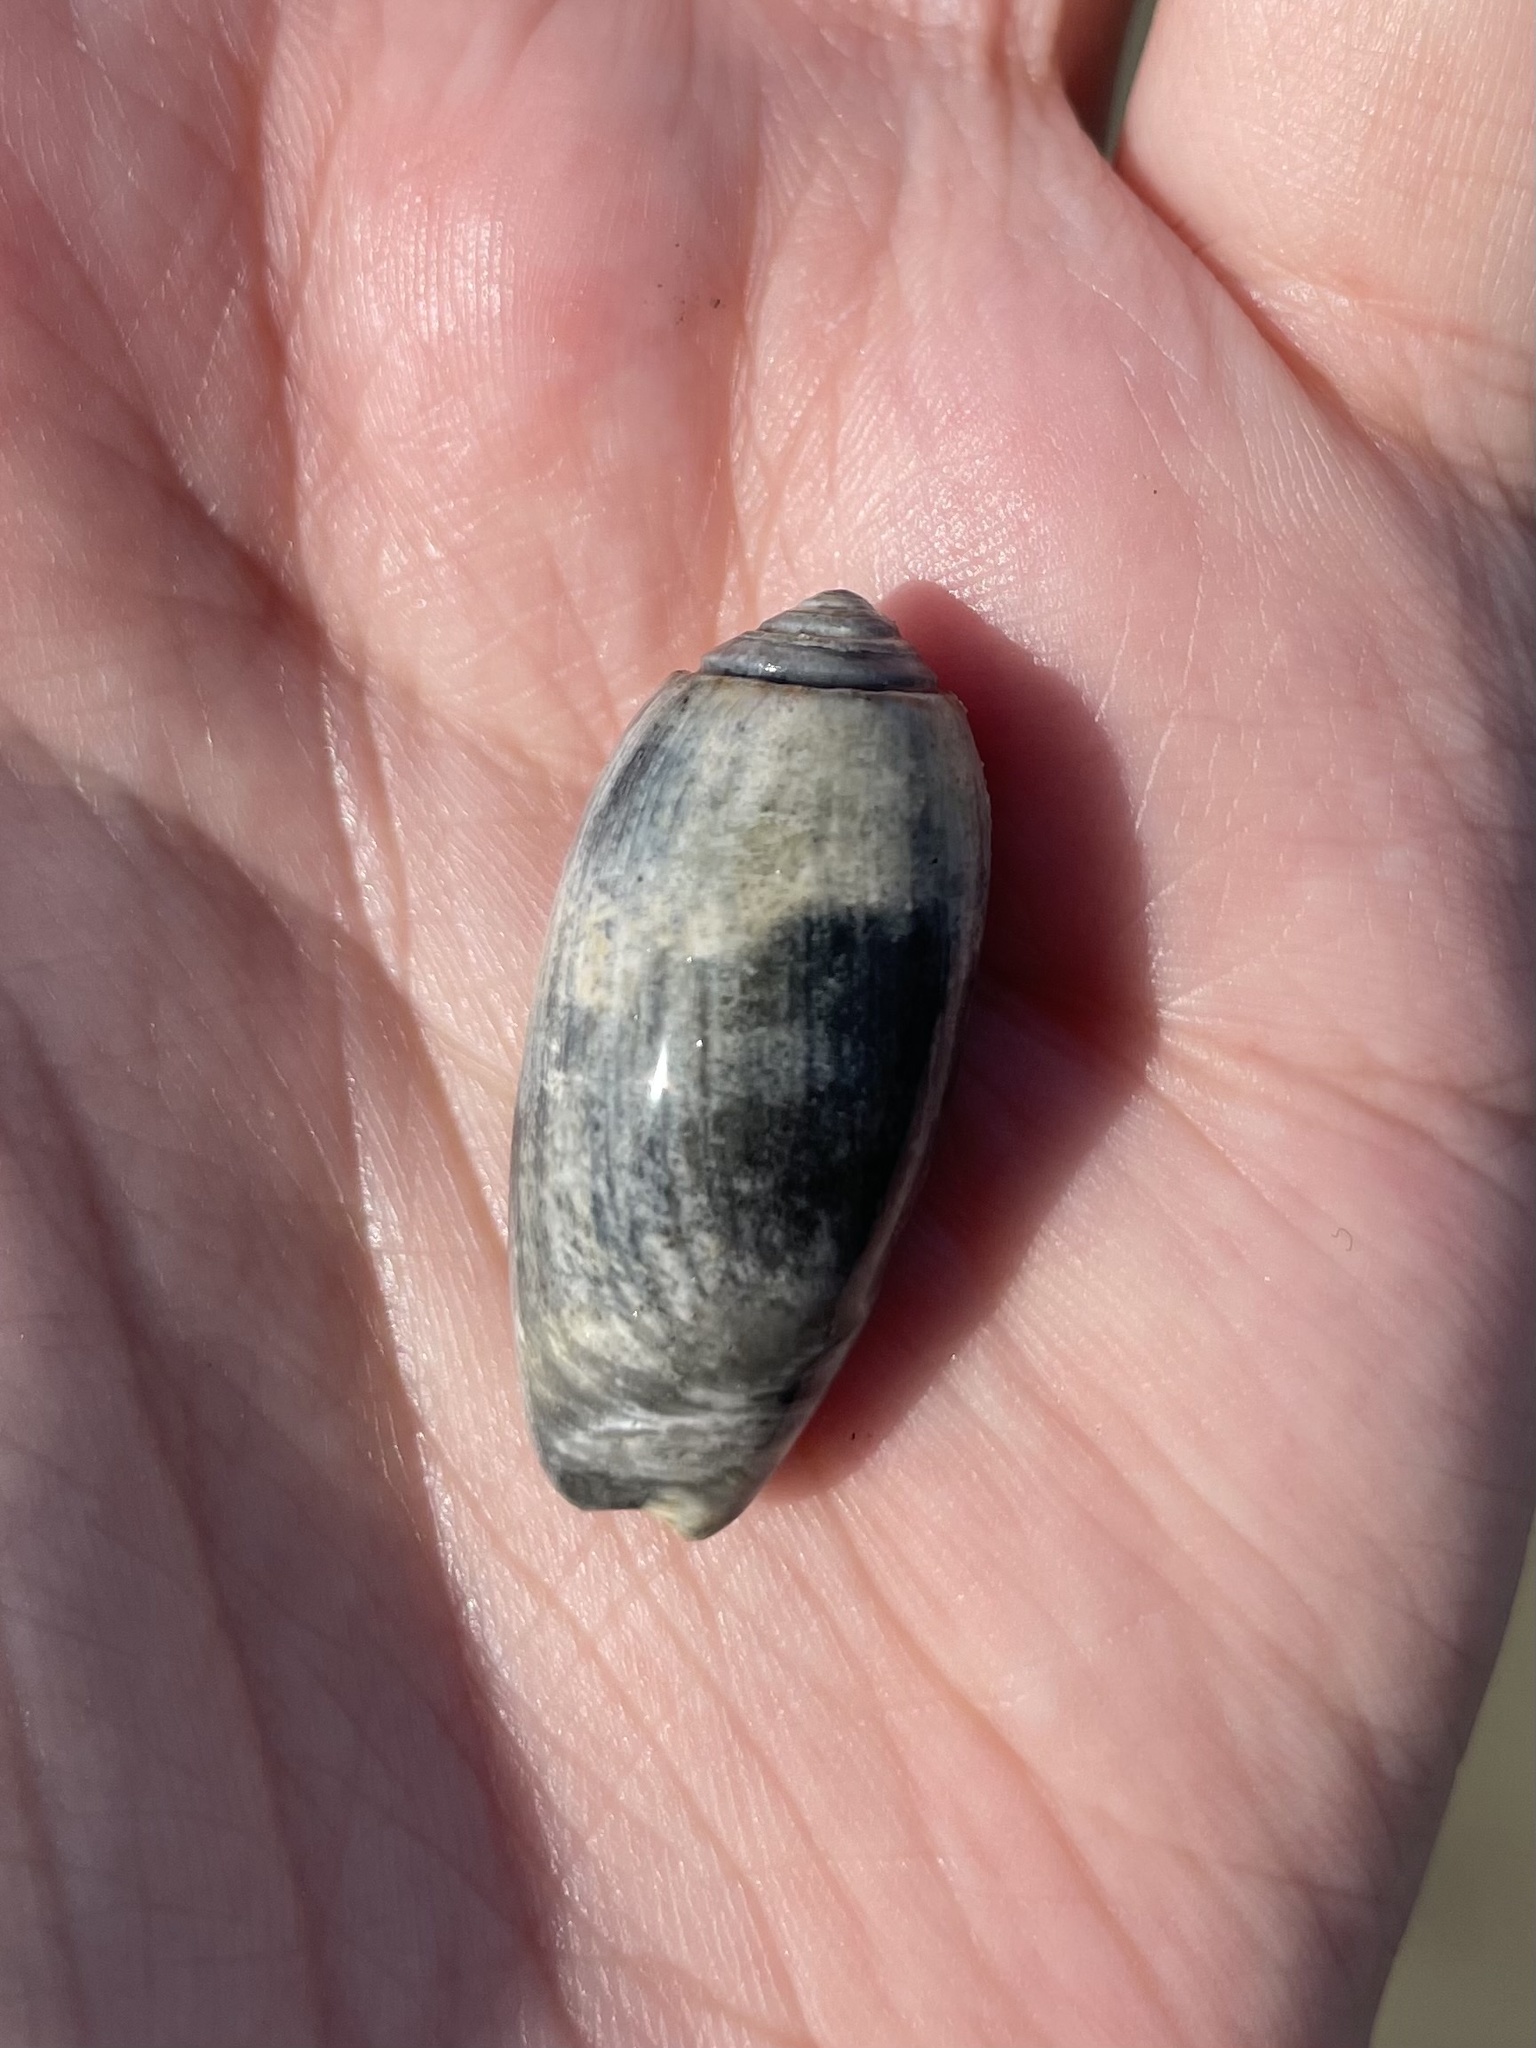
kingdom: Animalia
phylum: Mollusca
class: Gastropoda
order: Neogastropoda
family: Olividae
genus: Oliva
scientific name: Oliva sayana
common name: Lettered olive
